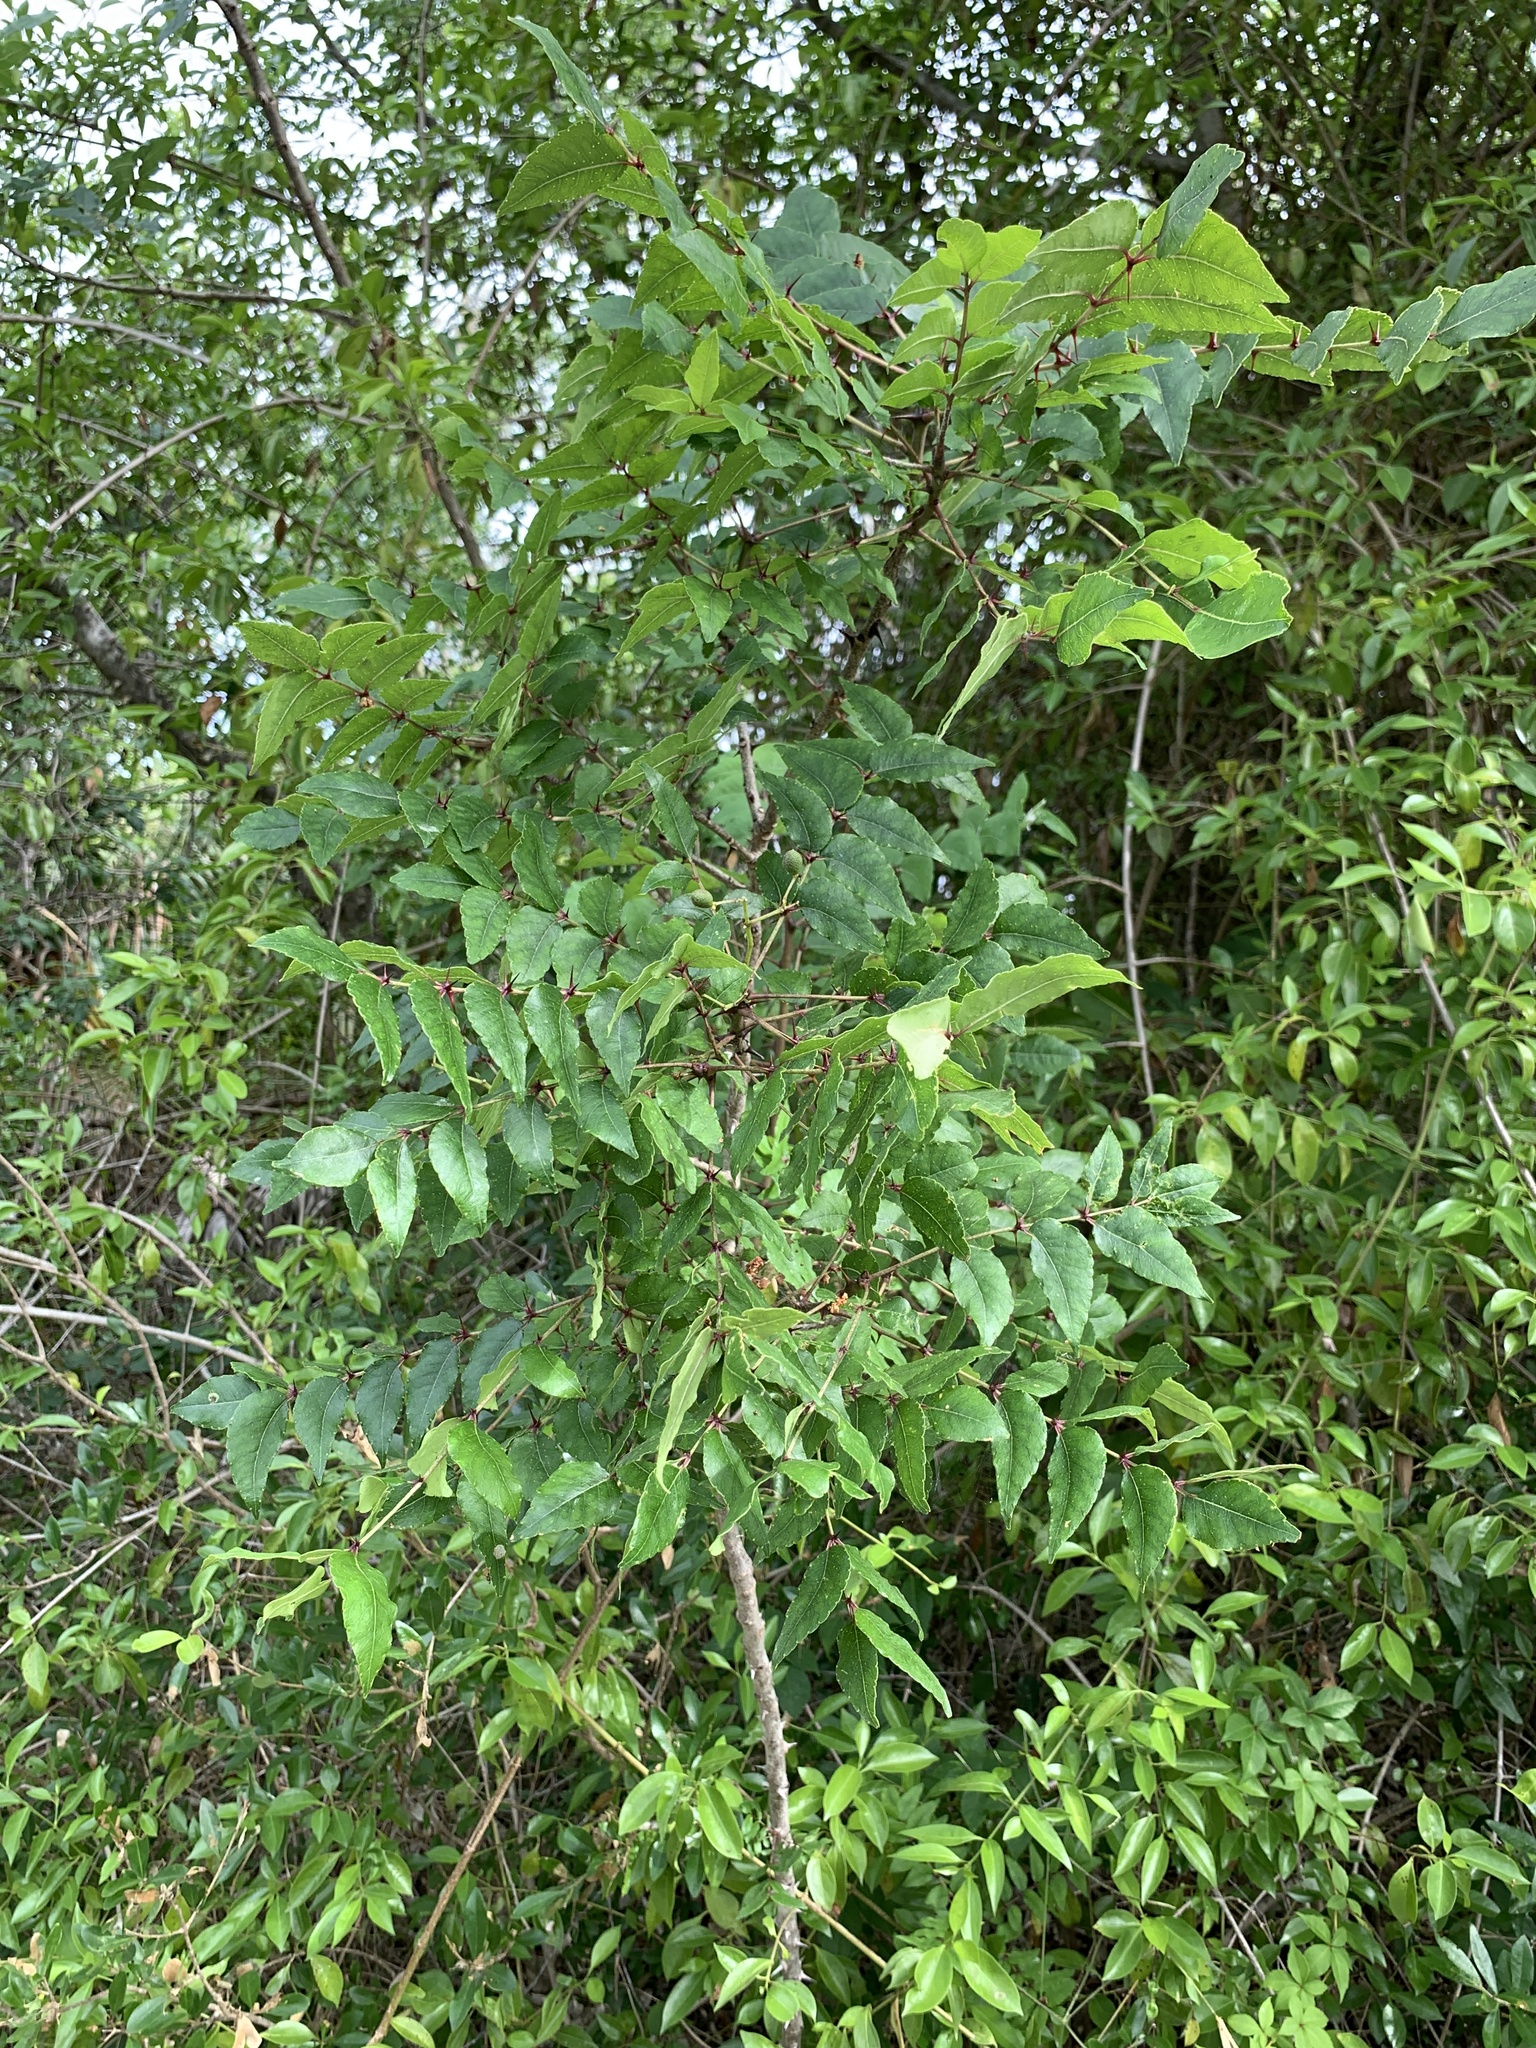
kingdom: Plantae
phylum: Tracheophyta
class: Magnoliopsida
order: Sapindales
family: Rutaceae
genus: Zanthoxylum
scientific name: Zanthoxylum clava-herculis
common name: Hercules'-club
